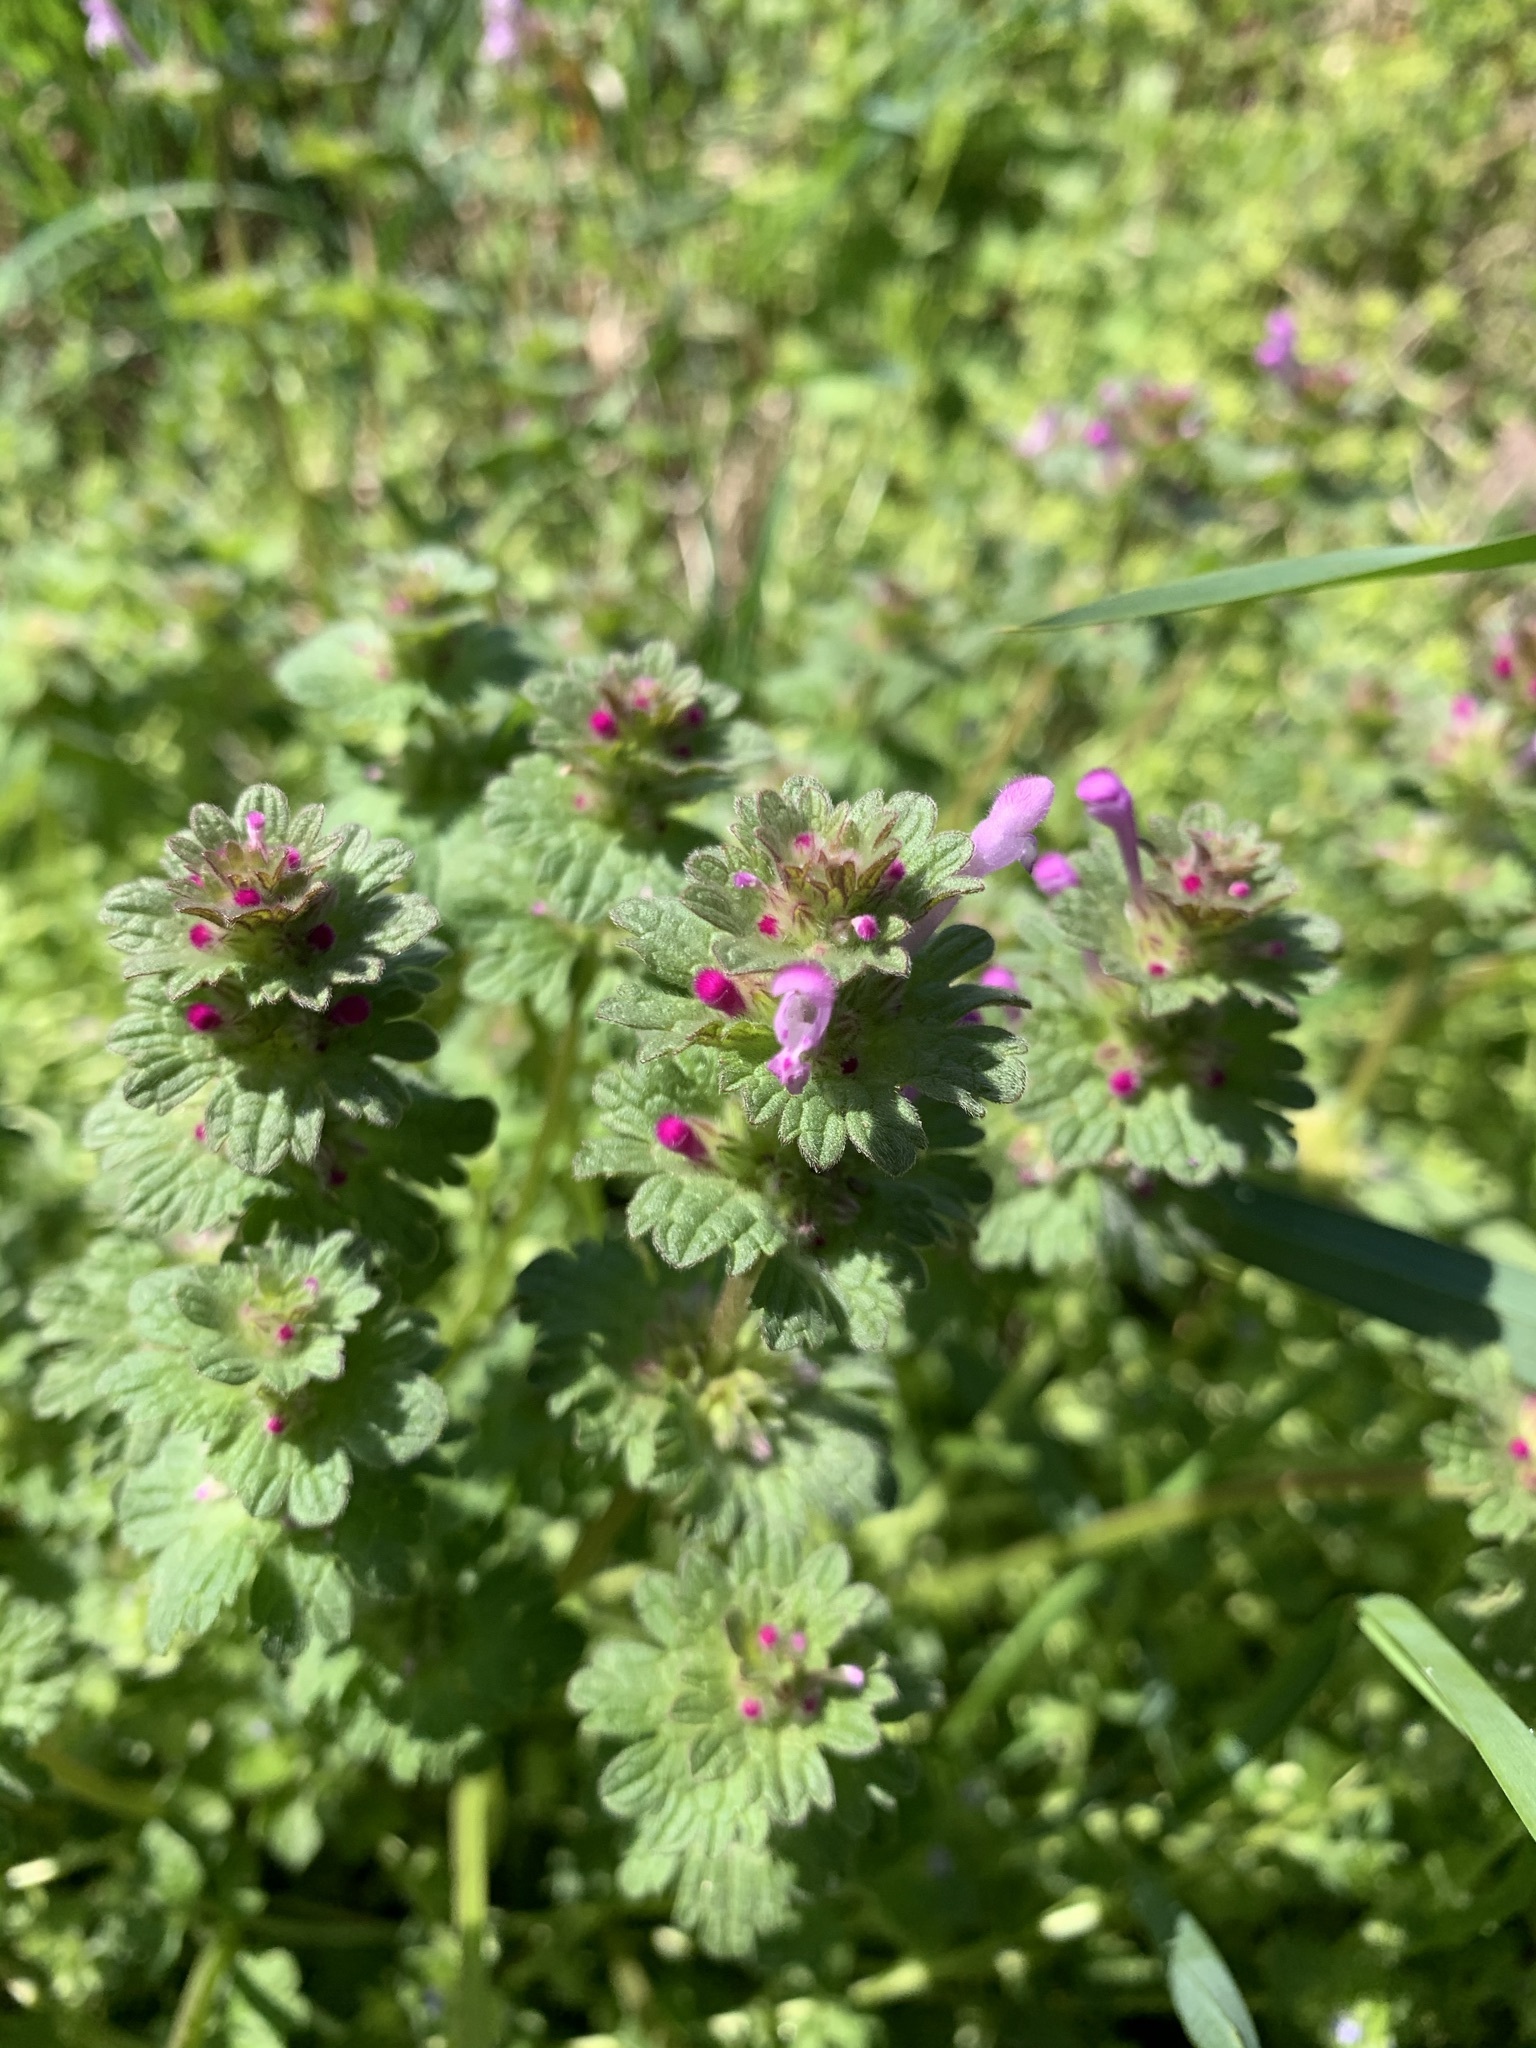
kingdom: Plantae
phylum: Tracheophyta
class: Magnoliopsida
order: Lamiales
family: Lamiaceae
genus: Lamium
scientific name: Lamium amplexicaule
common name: Henbit dead-nettle
